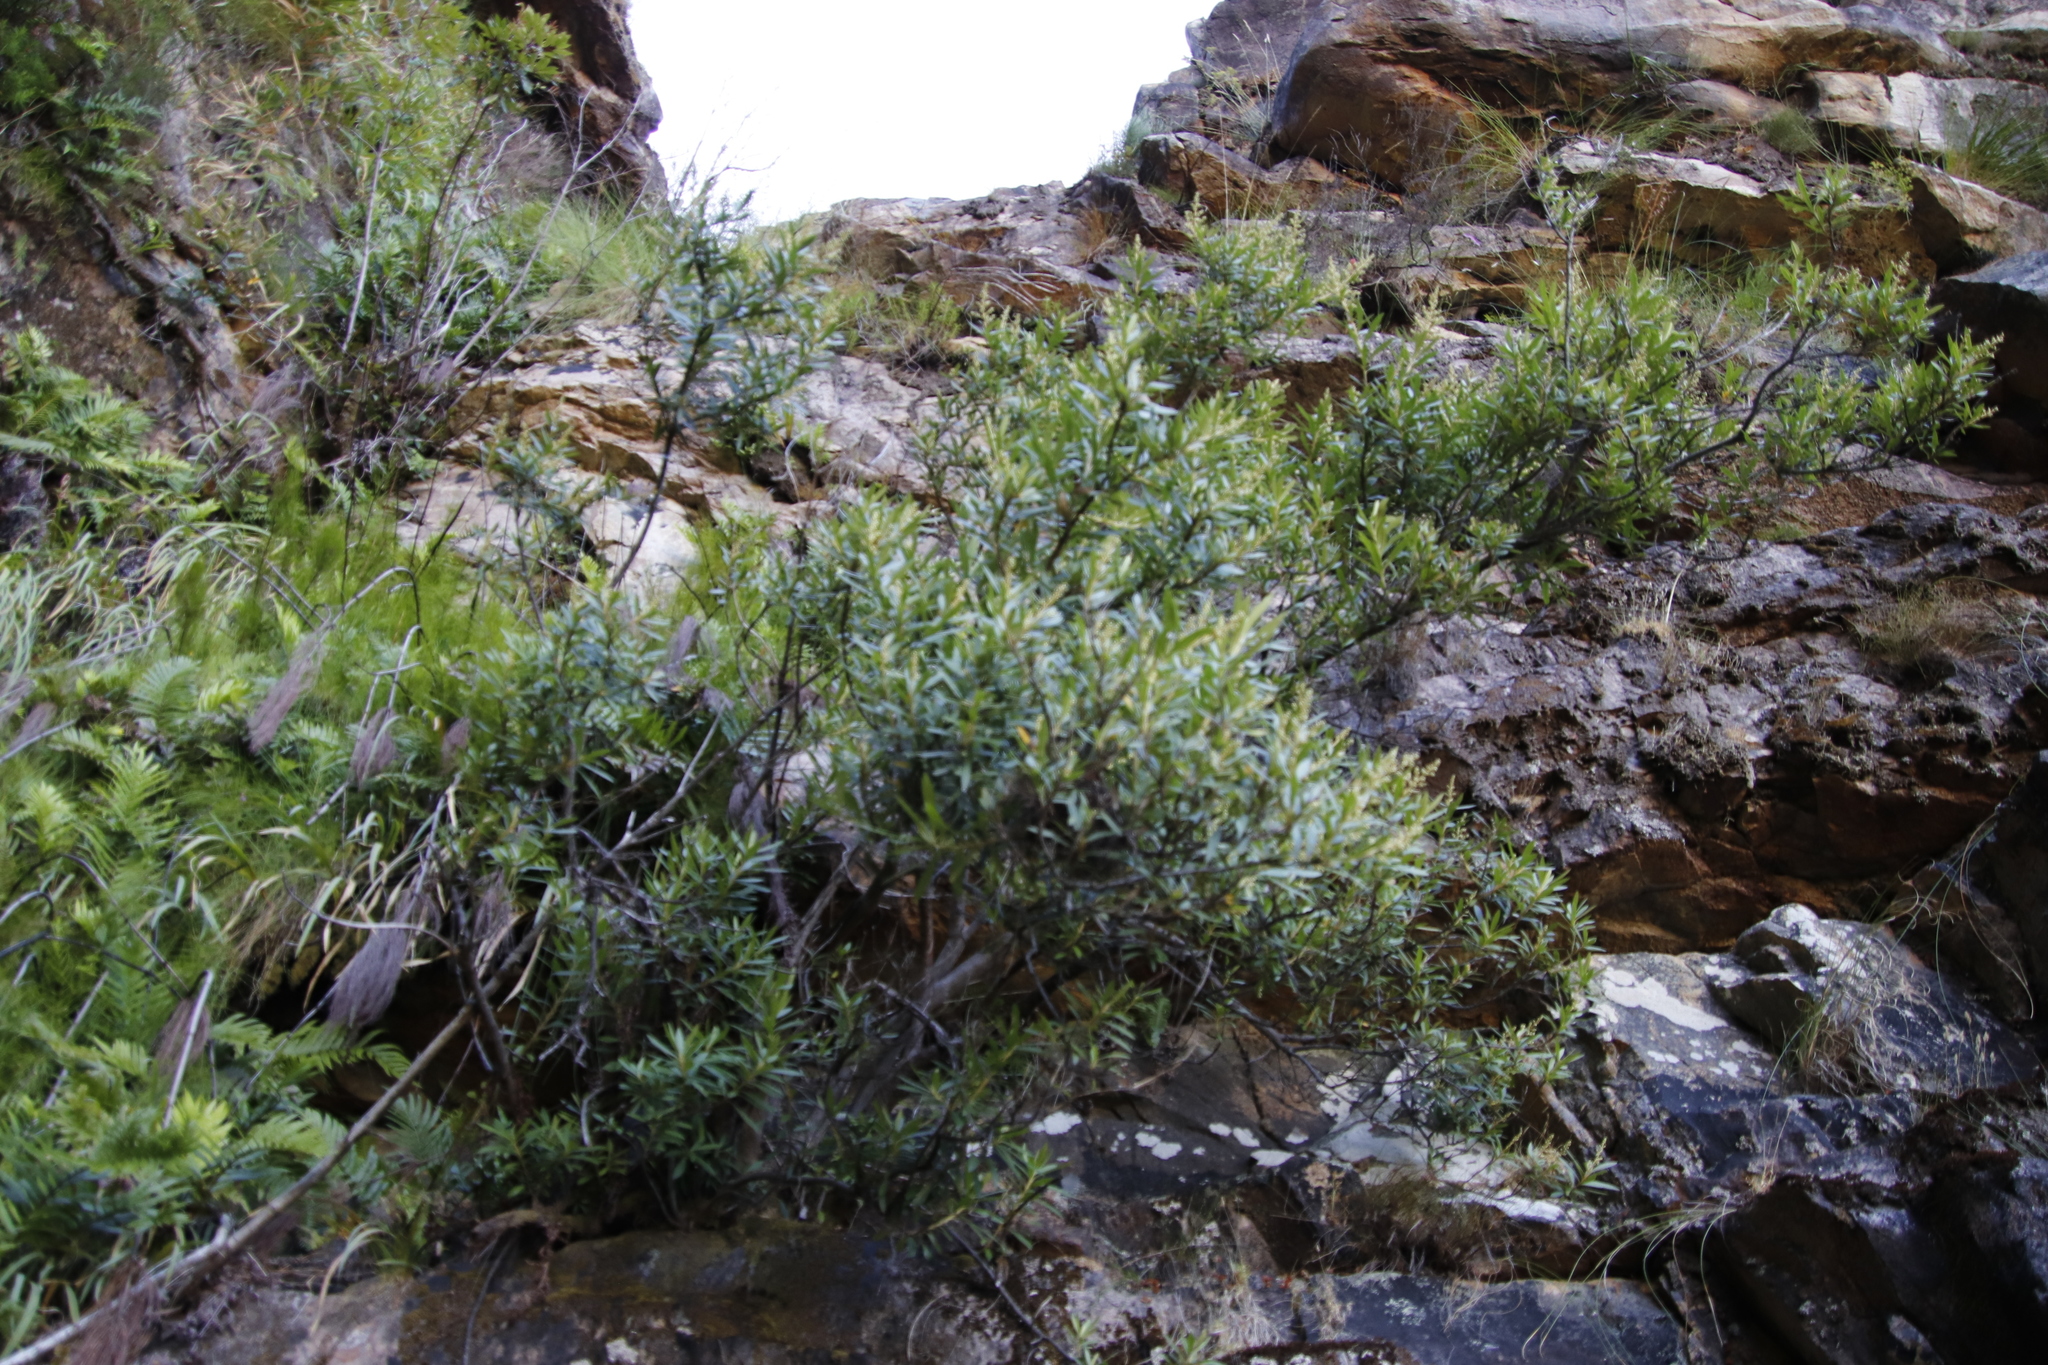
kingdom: Plantae
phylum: Tracheophyta
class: Magnoliopsida
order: Asterales
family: Asteraceae
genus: Brachylaena
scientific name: Brachylaena neriifolia
